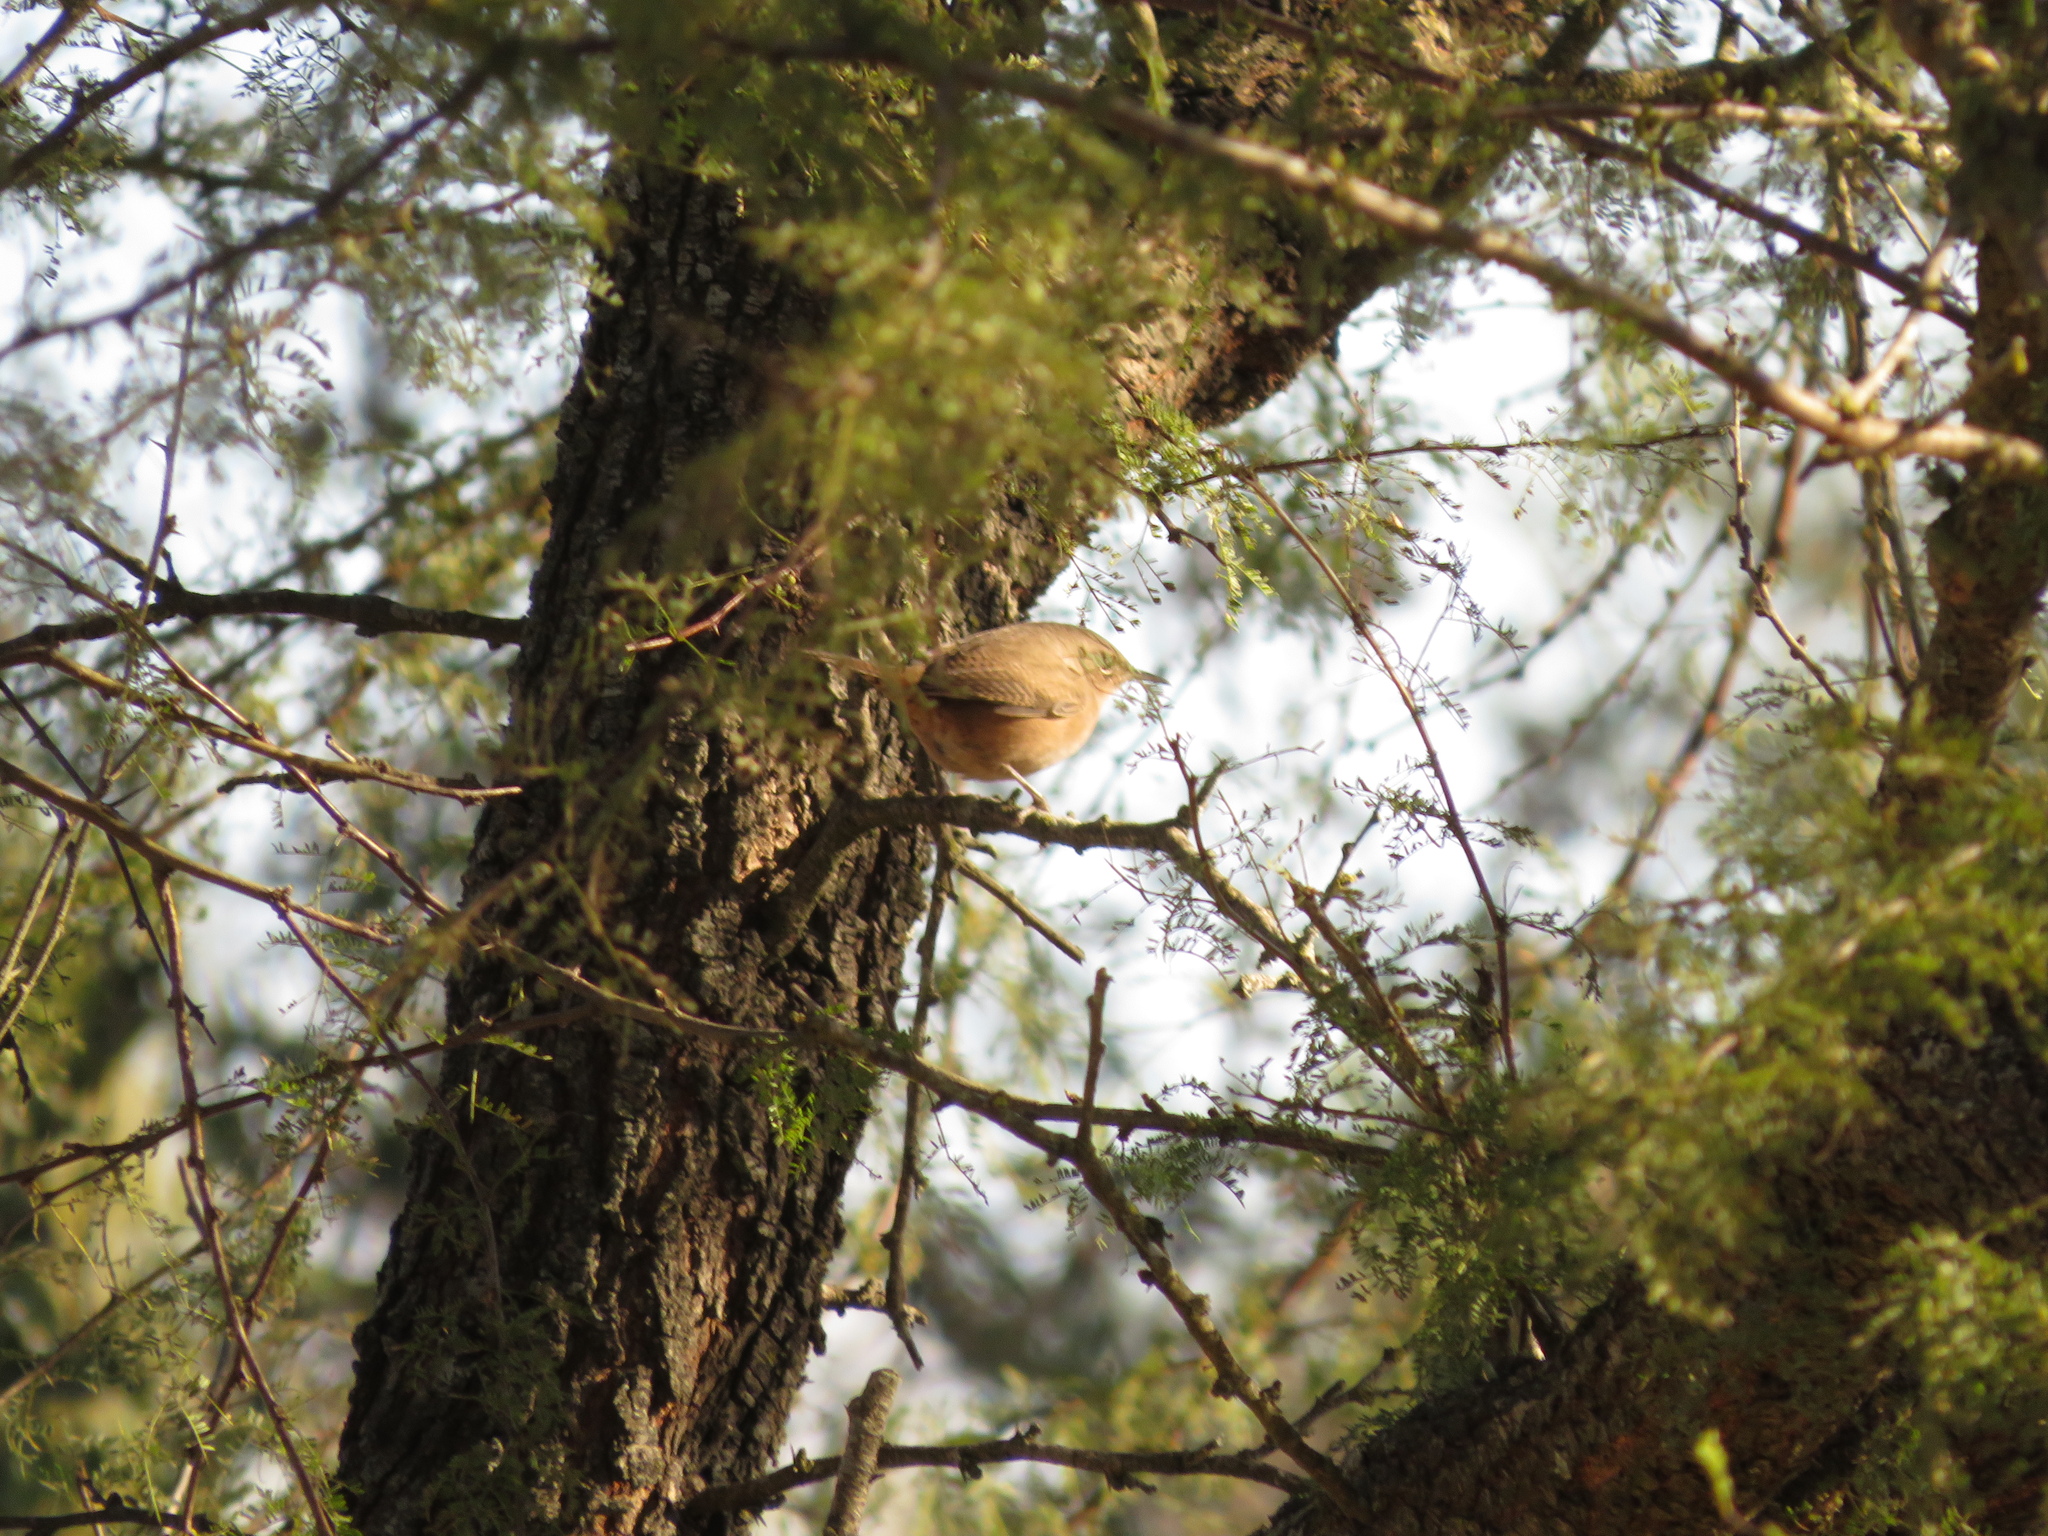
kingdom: Animalia
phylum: Chordata
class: Aves
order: Passeriformes
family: Troglodytidae
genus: Troglodytes
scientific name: Troglodytes aedon
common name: House wren
